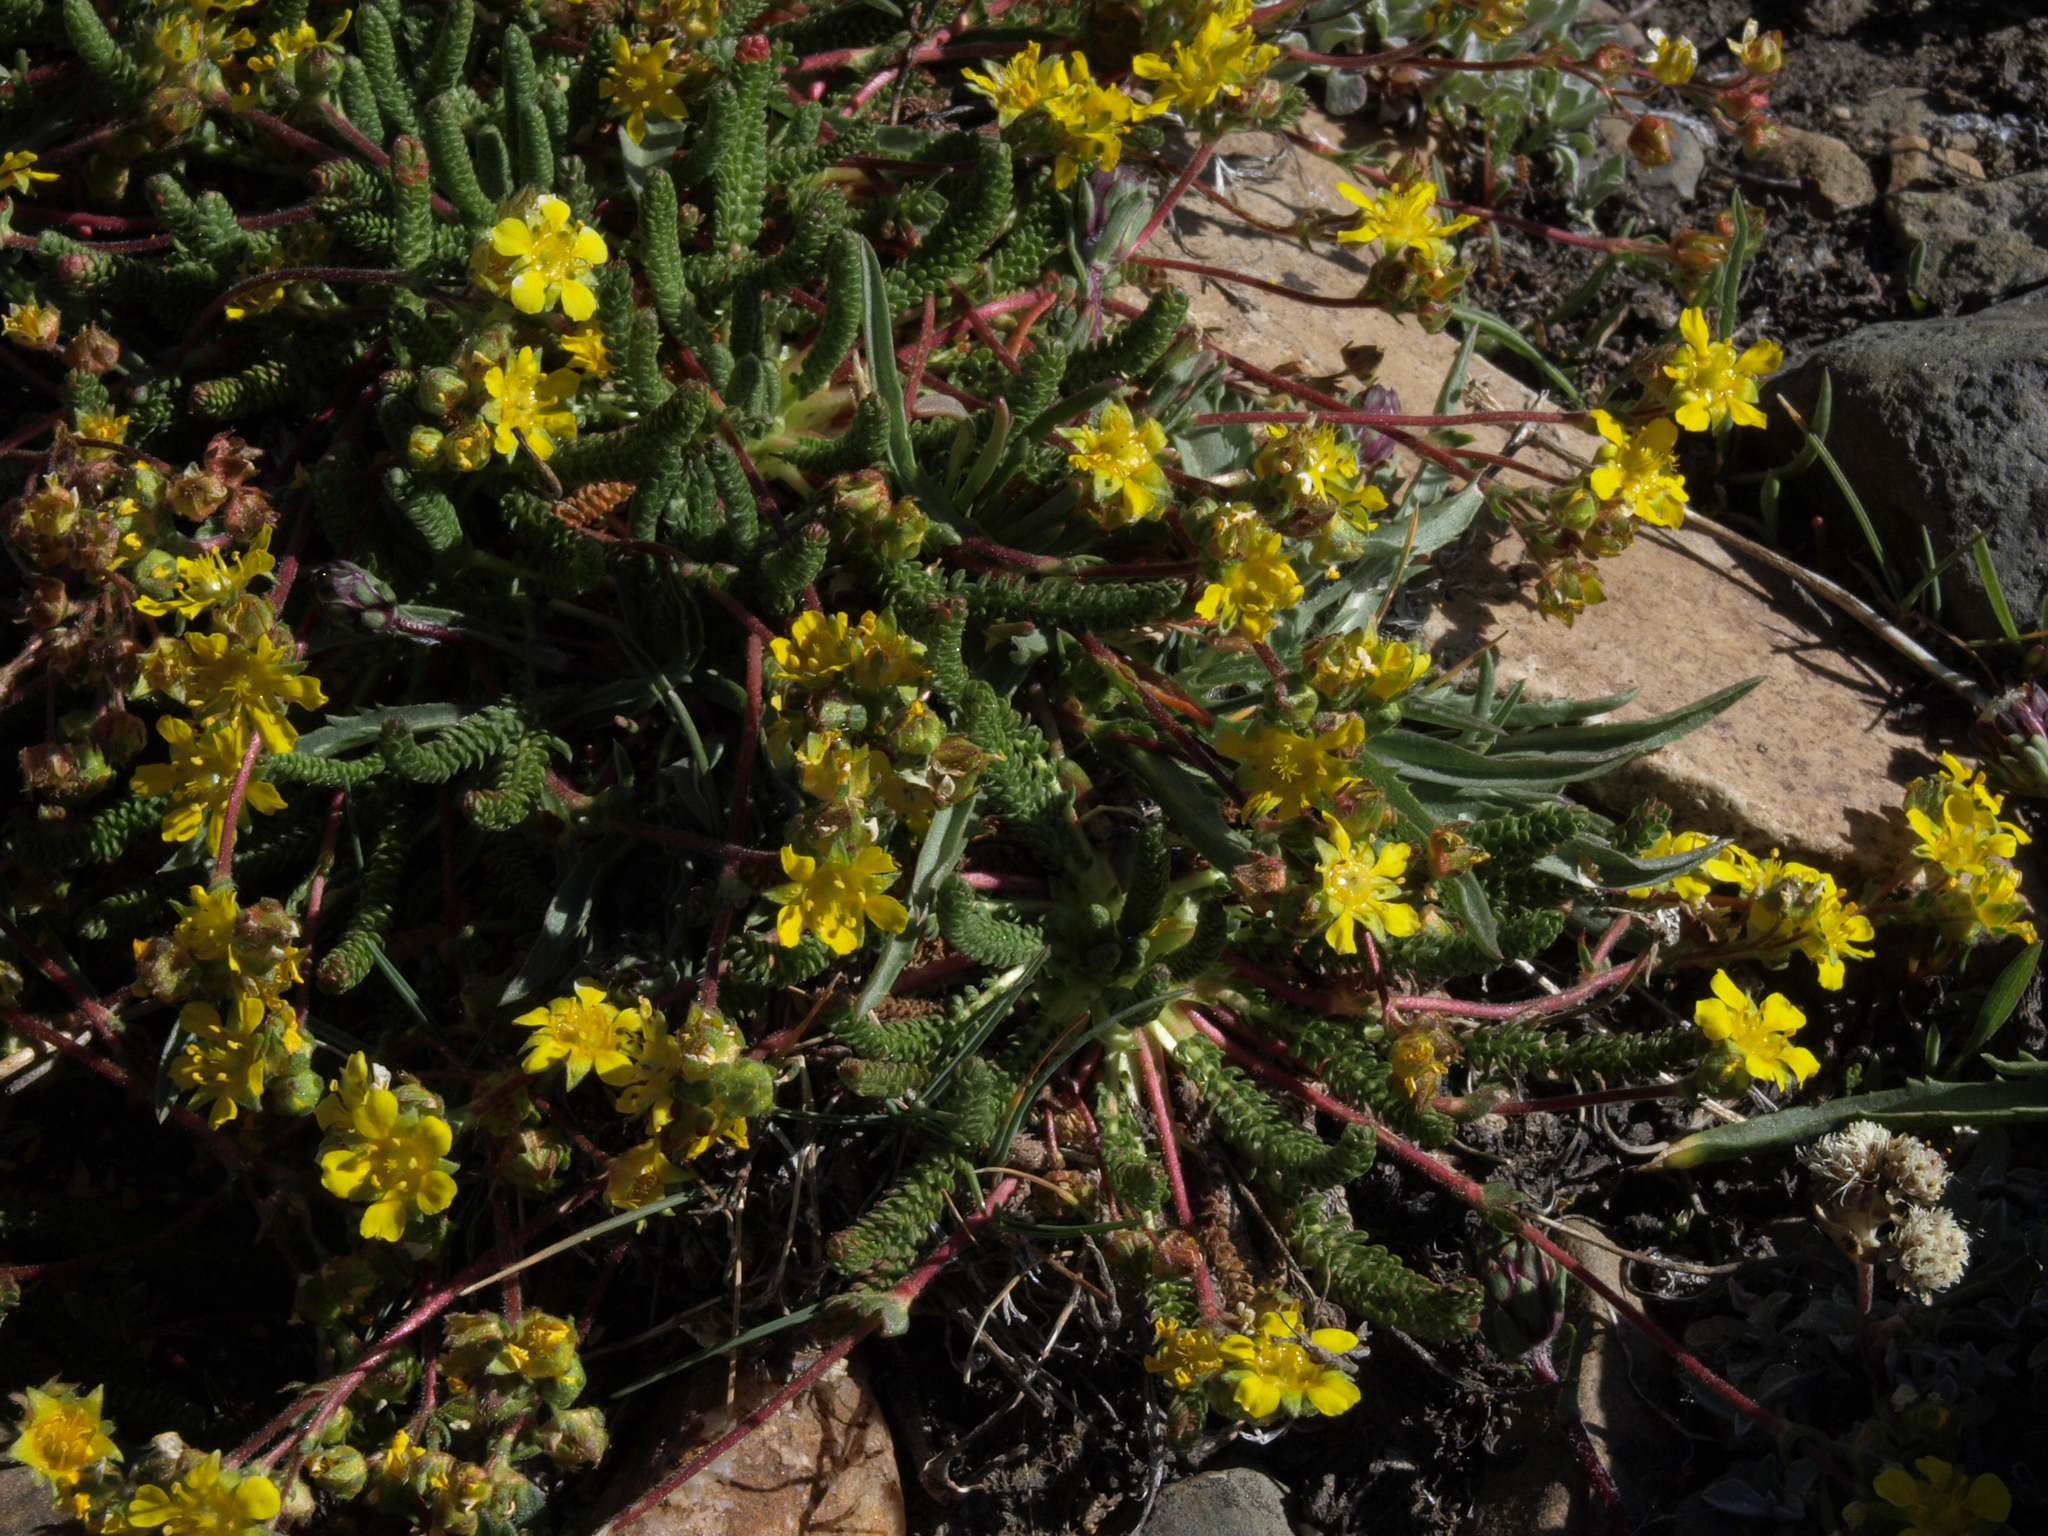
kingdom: Plantae
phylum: Tracheophyta
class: Magnoliopsida
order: Rosales
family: Rosaceae
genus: Potentilla
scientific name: Potentilla lycopodioides
